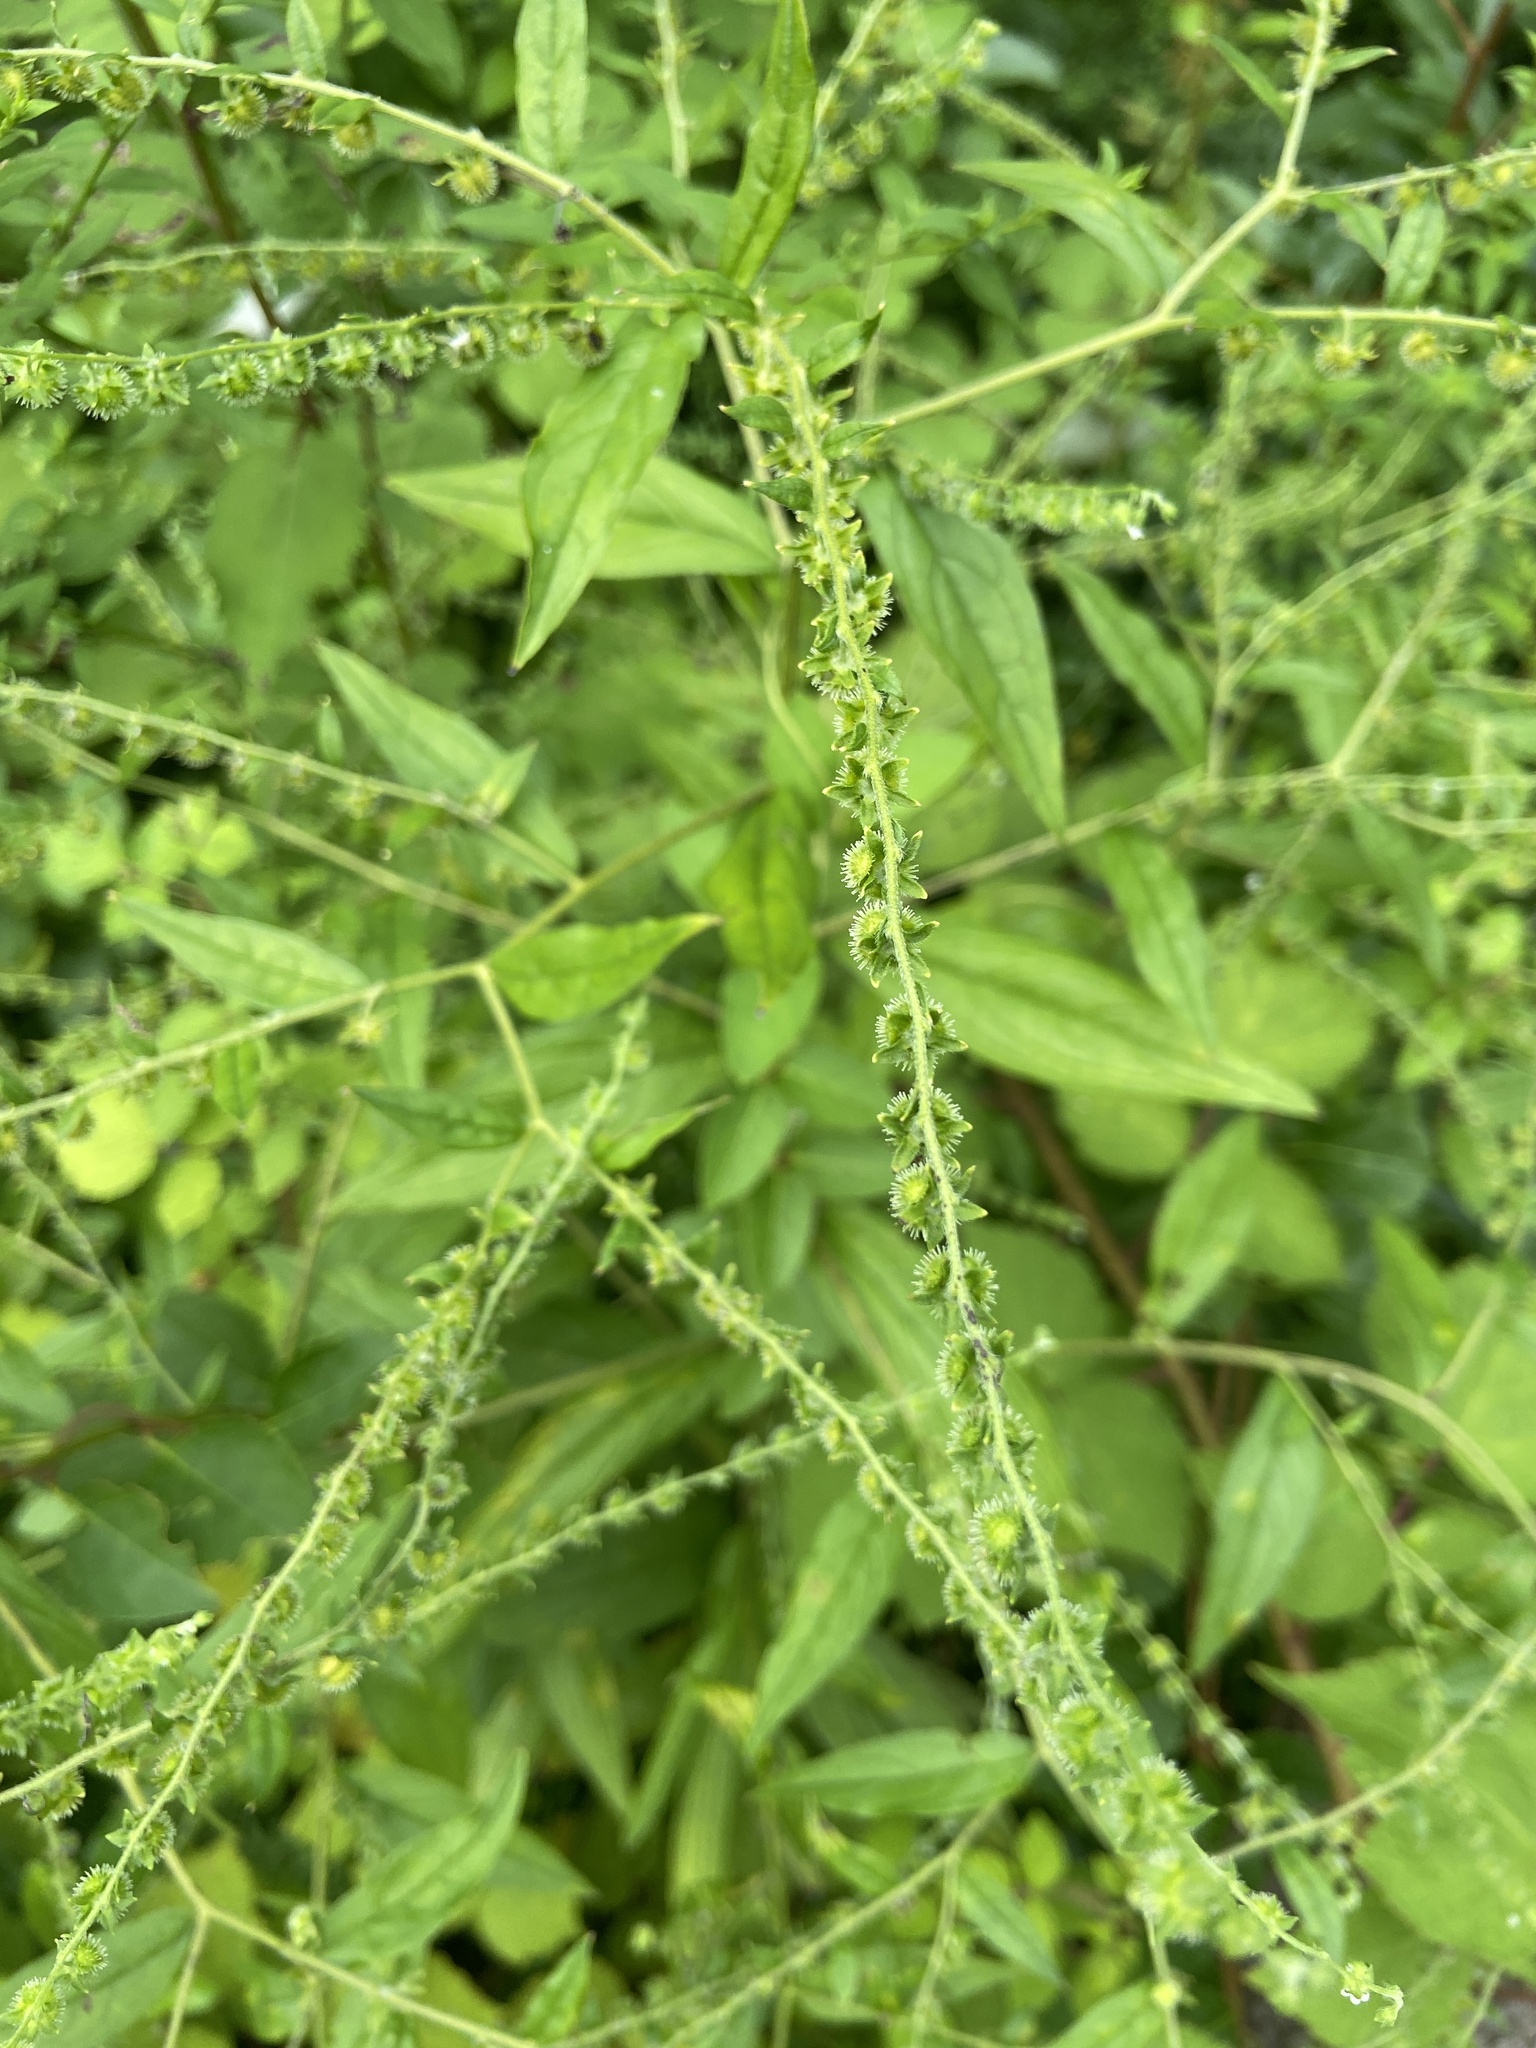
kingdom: Plantae
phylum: Tracheophyta
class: Magnoliopsida
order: Boraginales
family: Boraginaceae
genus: Hackelia
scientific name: Hackelia virginiana
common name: Beggar's-lice
